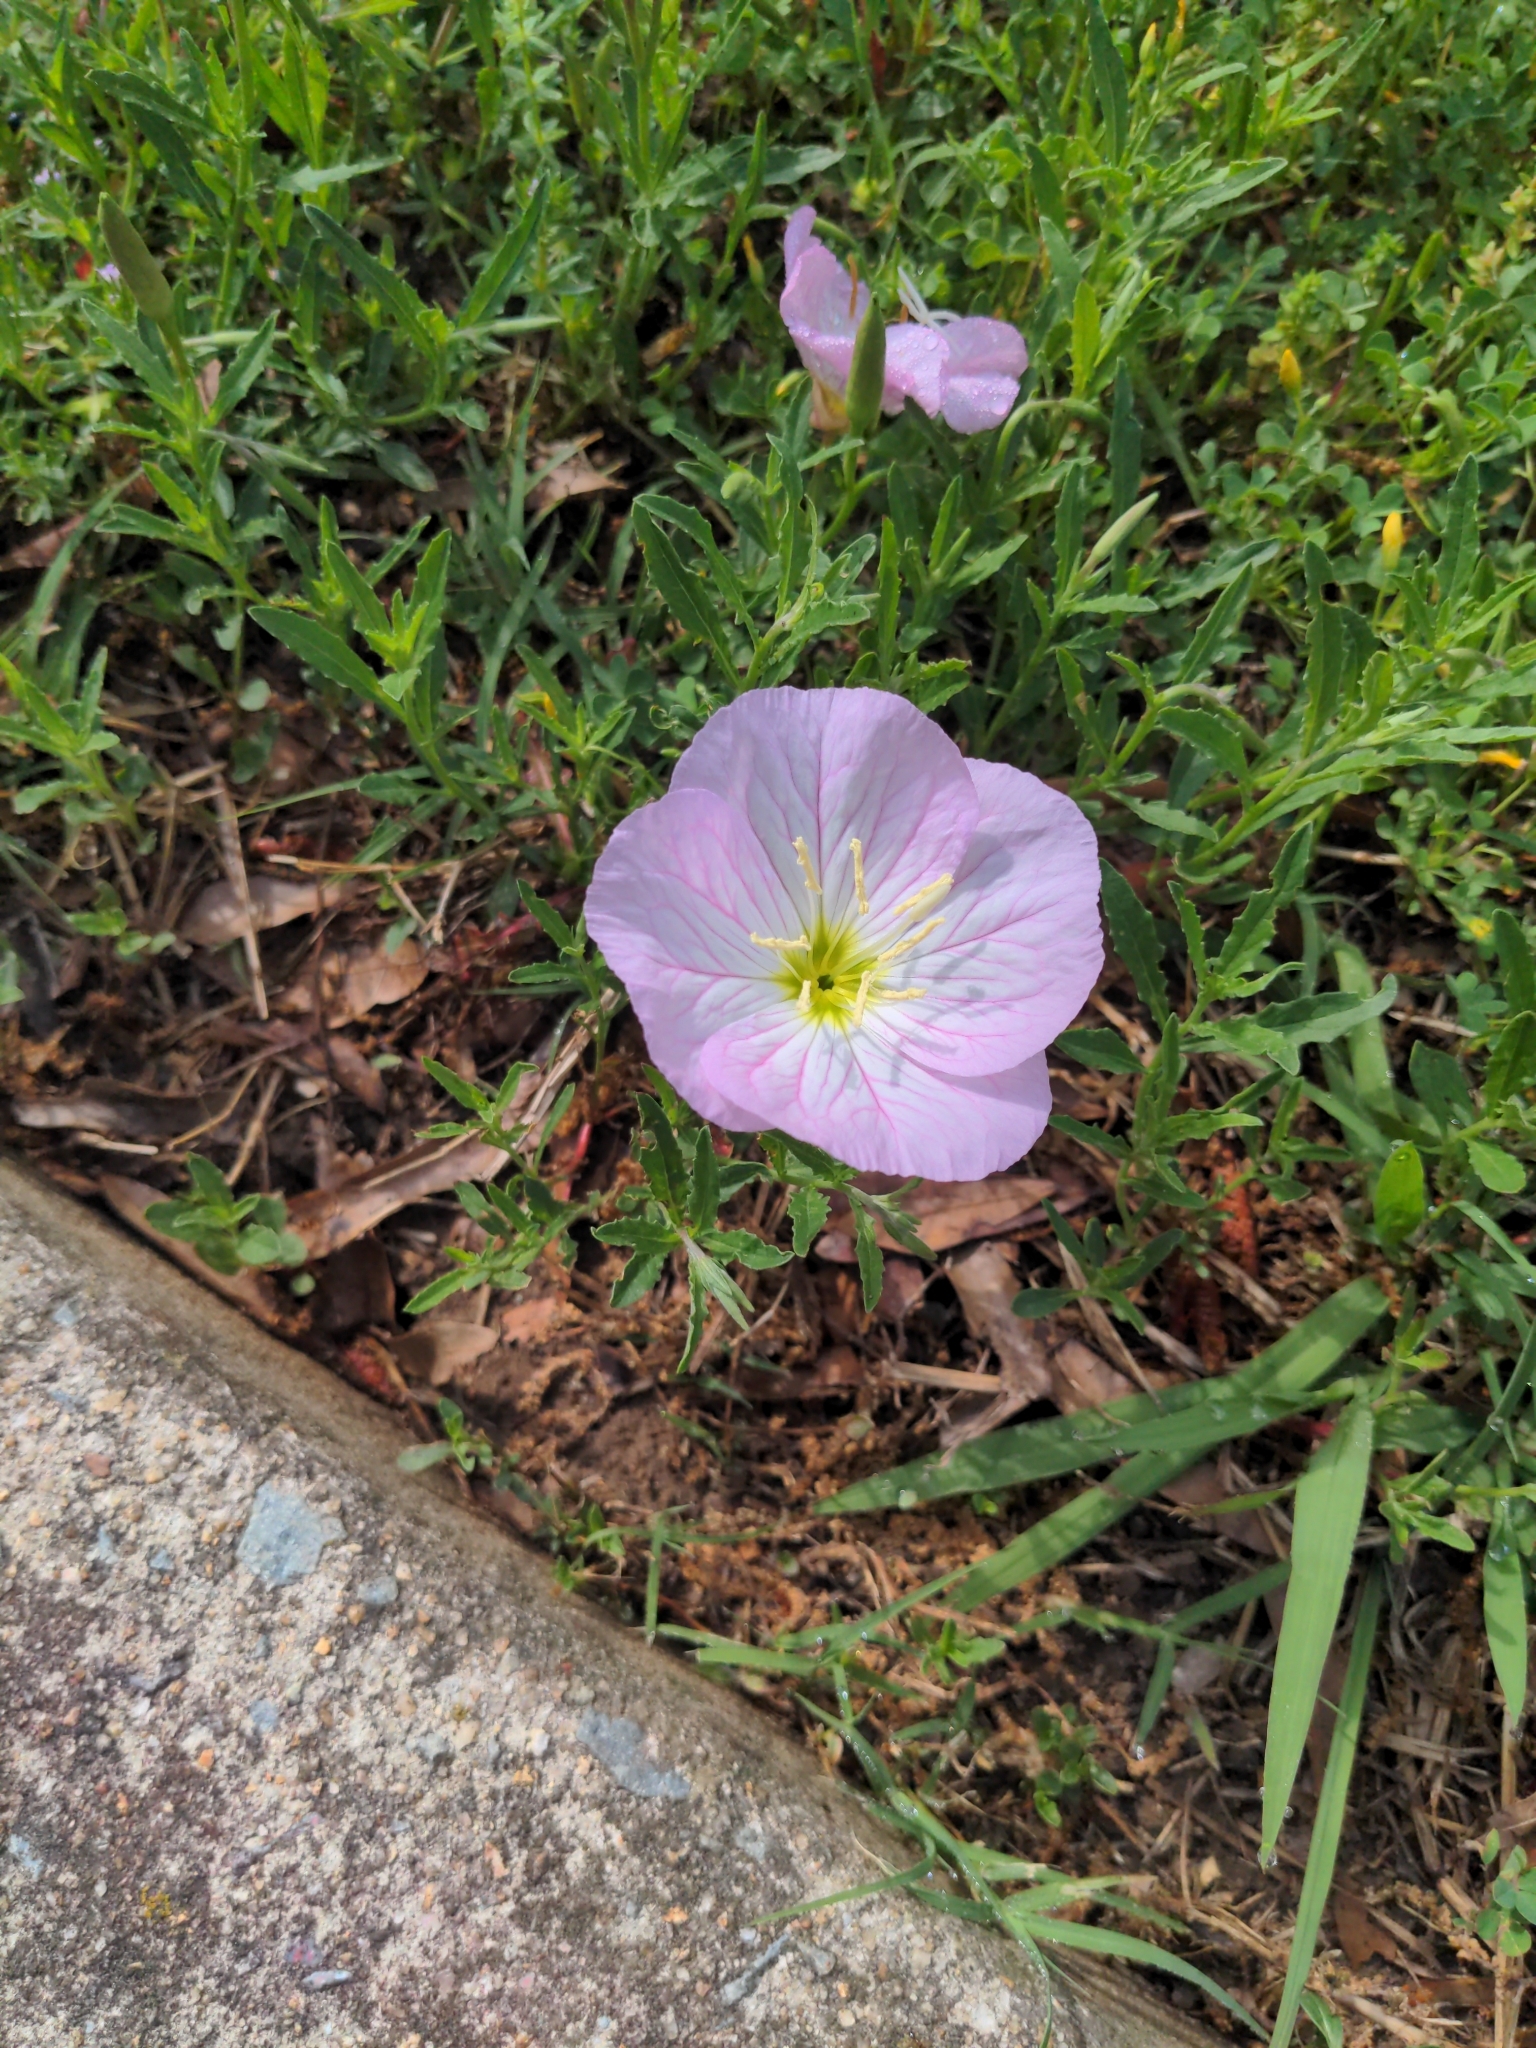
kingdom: Plantae
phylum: Tracheophyta
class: Magnoliopsida
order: Myrtales
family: Onagraceae
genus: Oenothera
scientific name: Oenothera speciosa
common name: White evening-primrose
